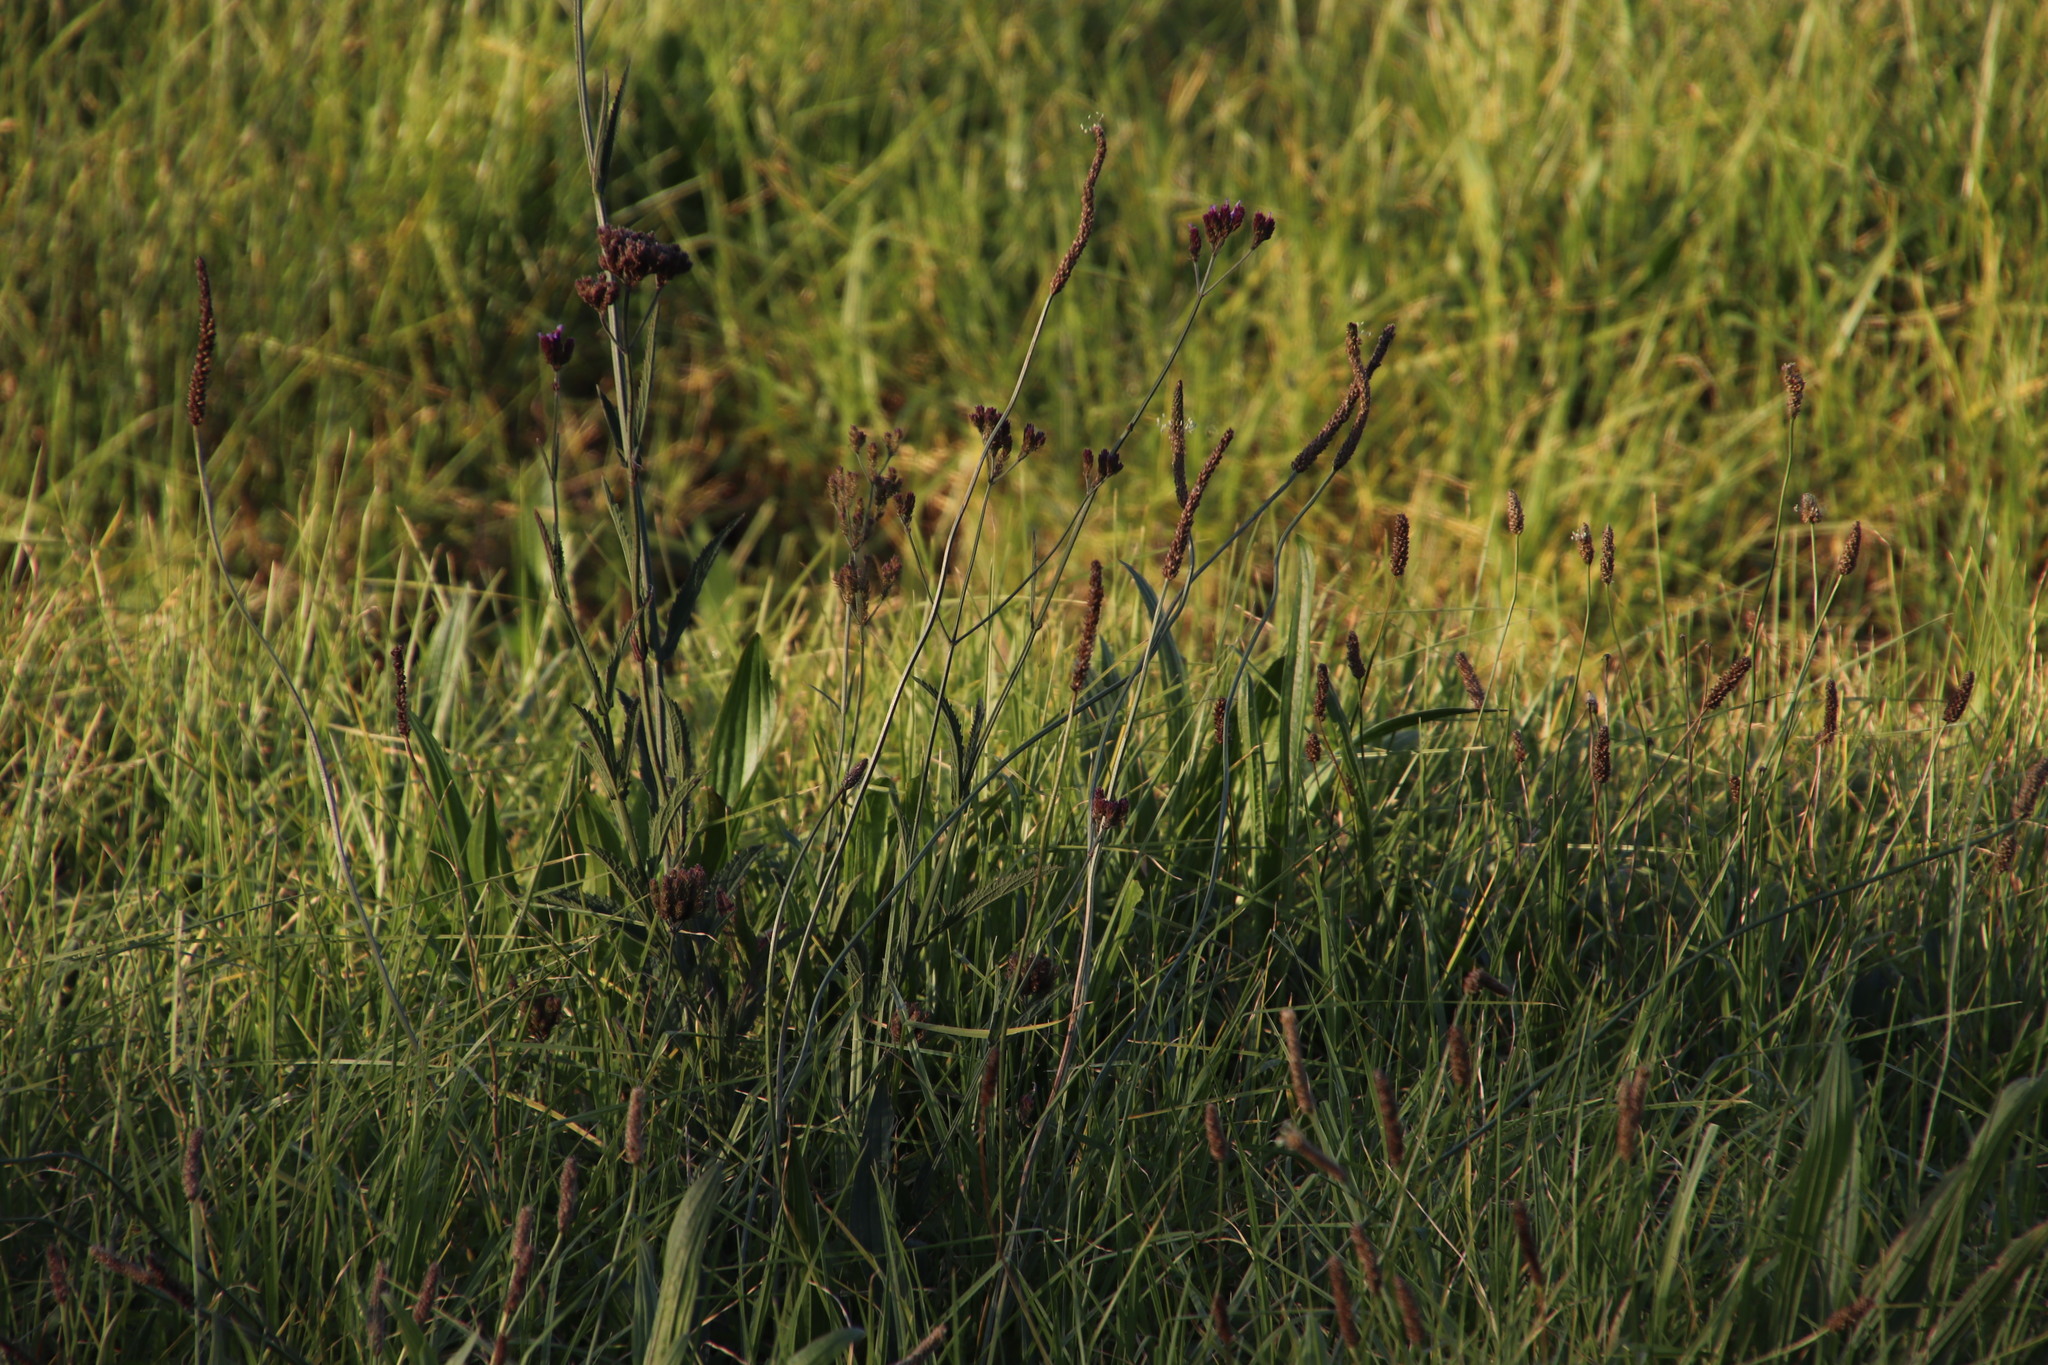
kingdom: Plantae
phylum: Tracheophyta
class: Magnoliopsida
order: Lamiales
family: Verbenaceae
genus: Verbena
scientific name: Verbena bonariensis
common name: Purpletop vervain
